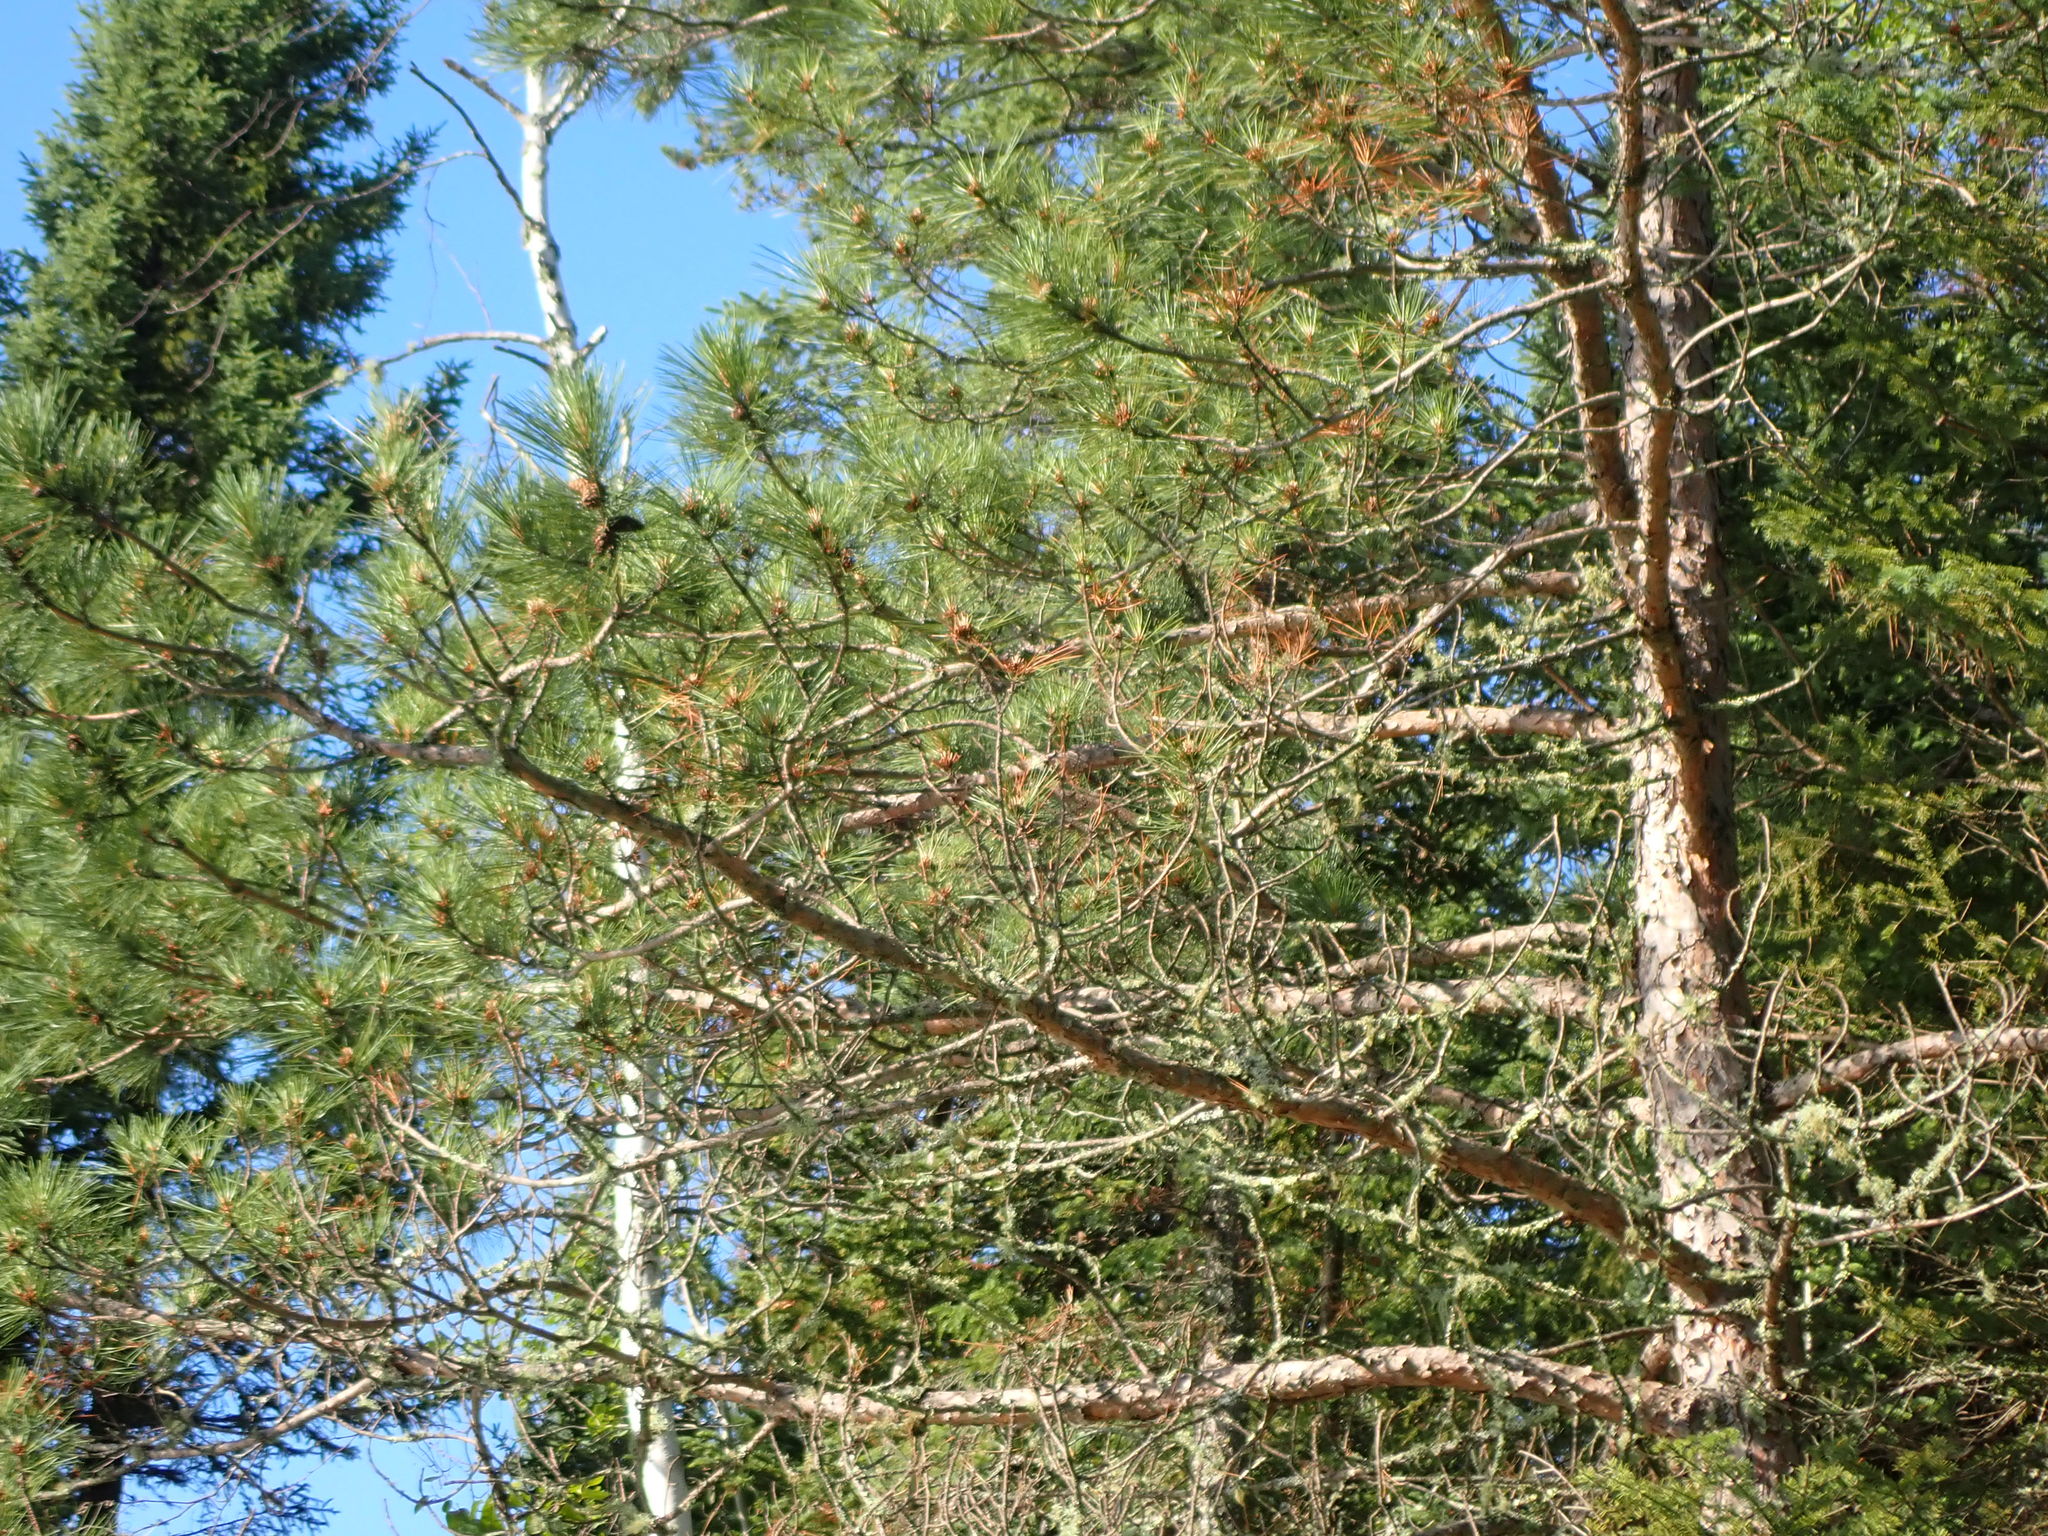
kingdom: Plantae
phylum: Tracheophyta
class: Pinopsida
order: Pinales
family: Pinaceae
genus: Pinus
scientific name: Pinus resinosa
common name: Norway pine
